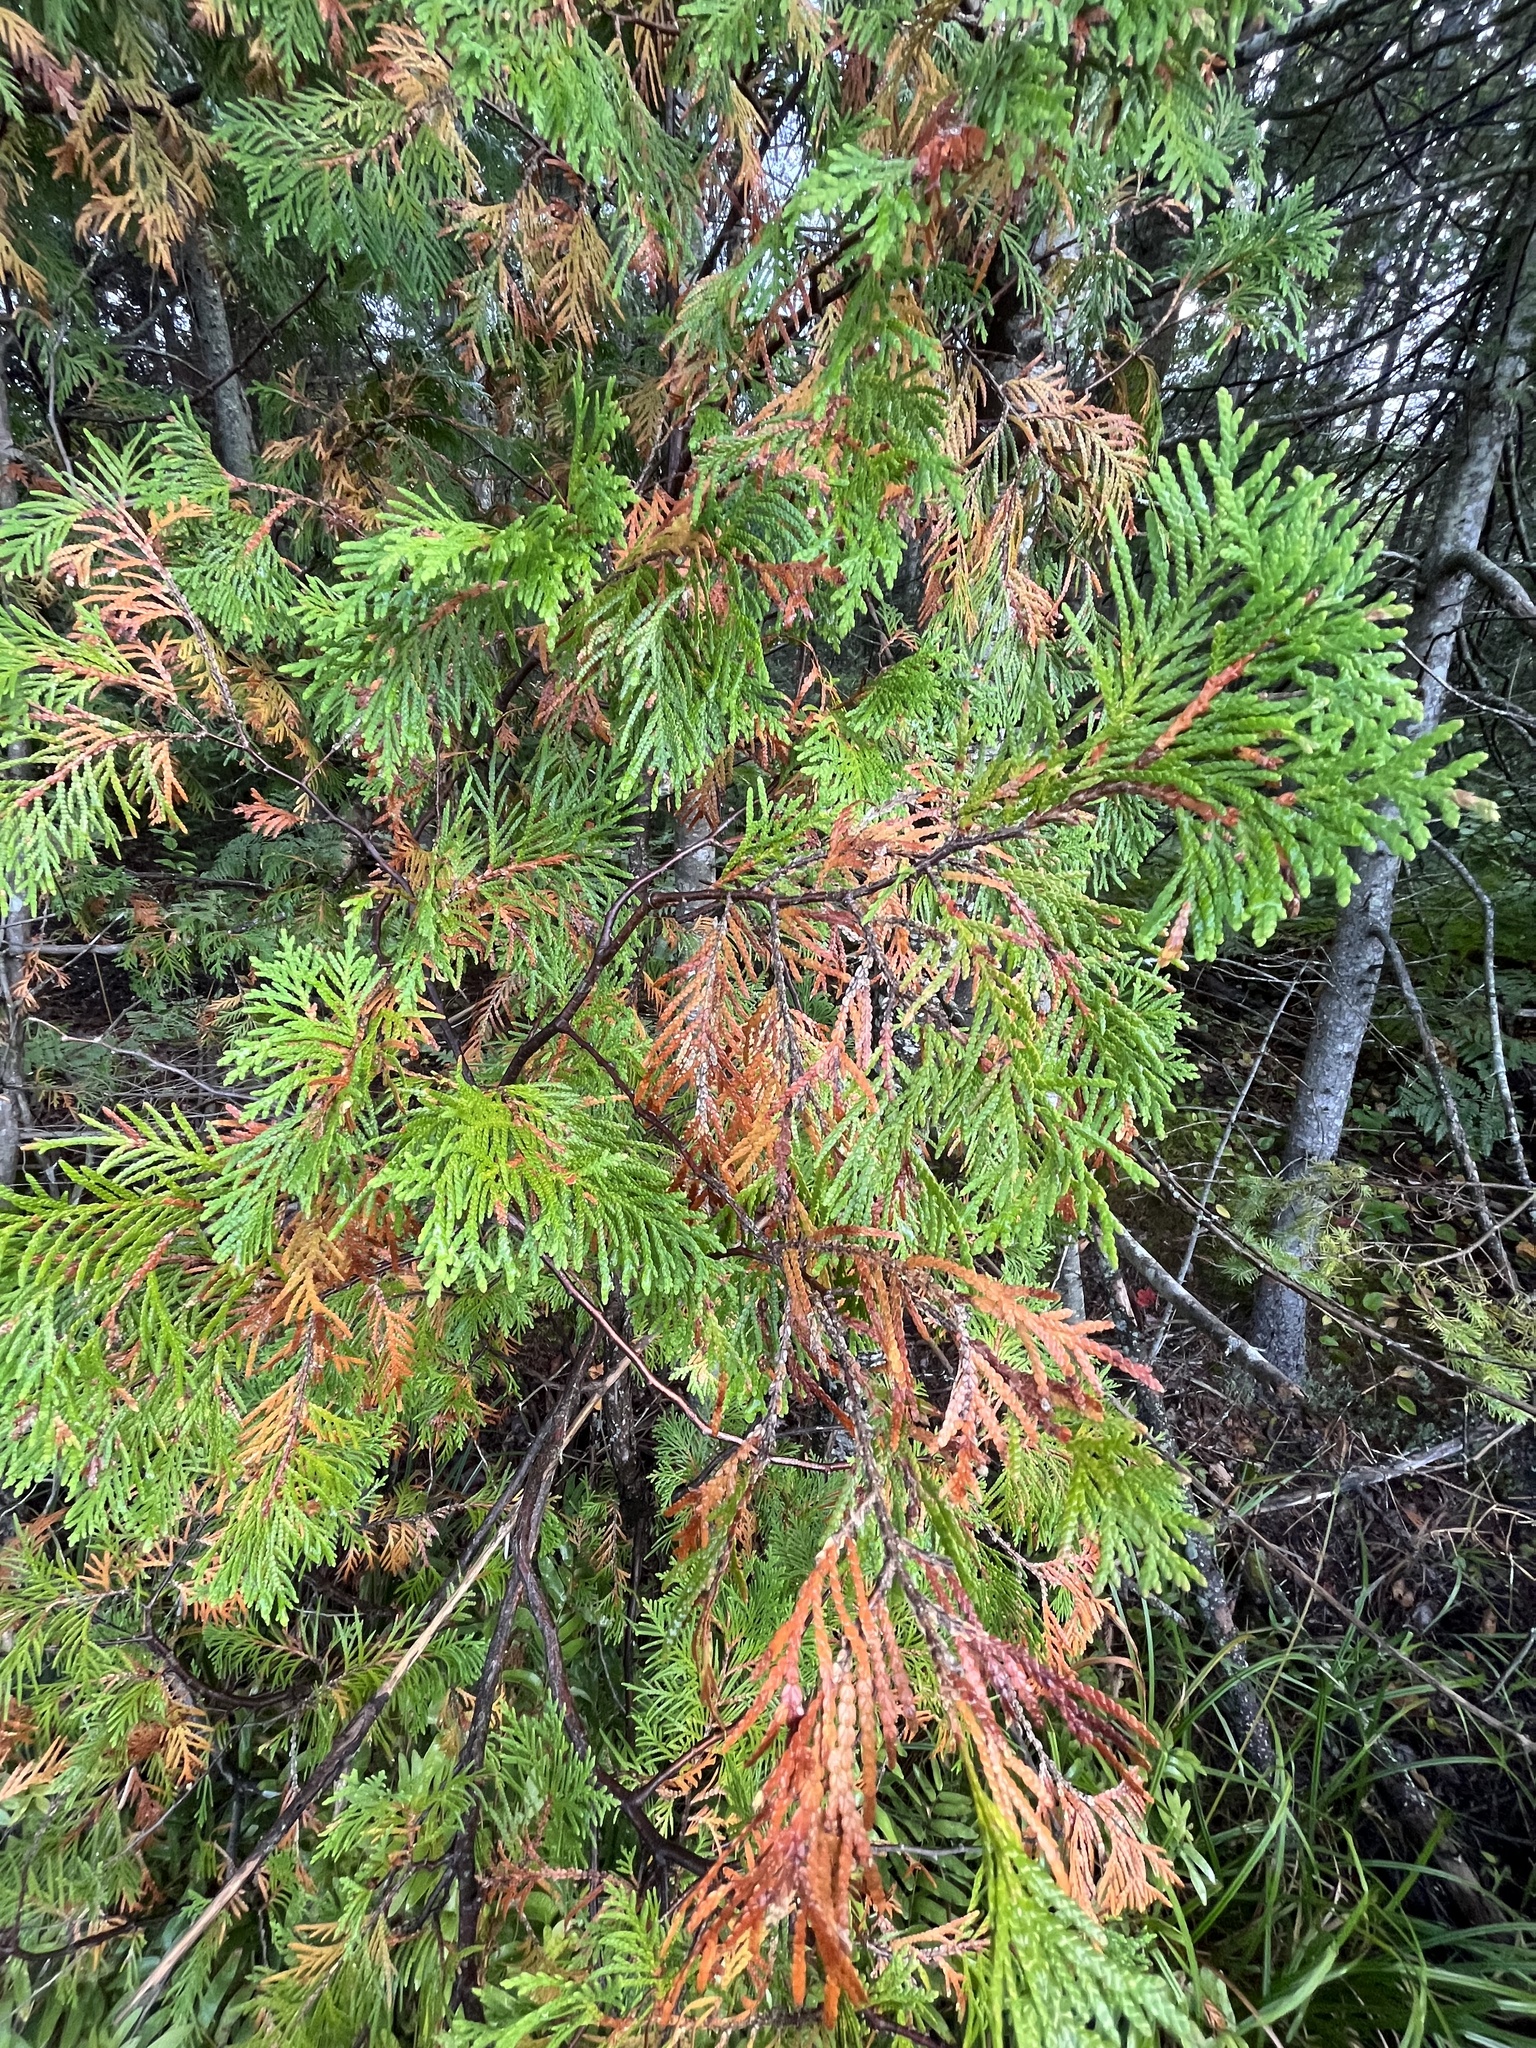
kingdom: Plantae
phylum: Tracheophyta
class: Pinopsida
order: Pinales
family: Cupressaceae
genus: Thuja
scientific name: Thuja occidentalis
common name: Northern white-cedar
